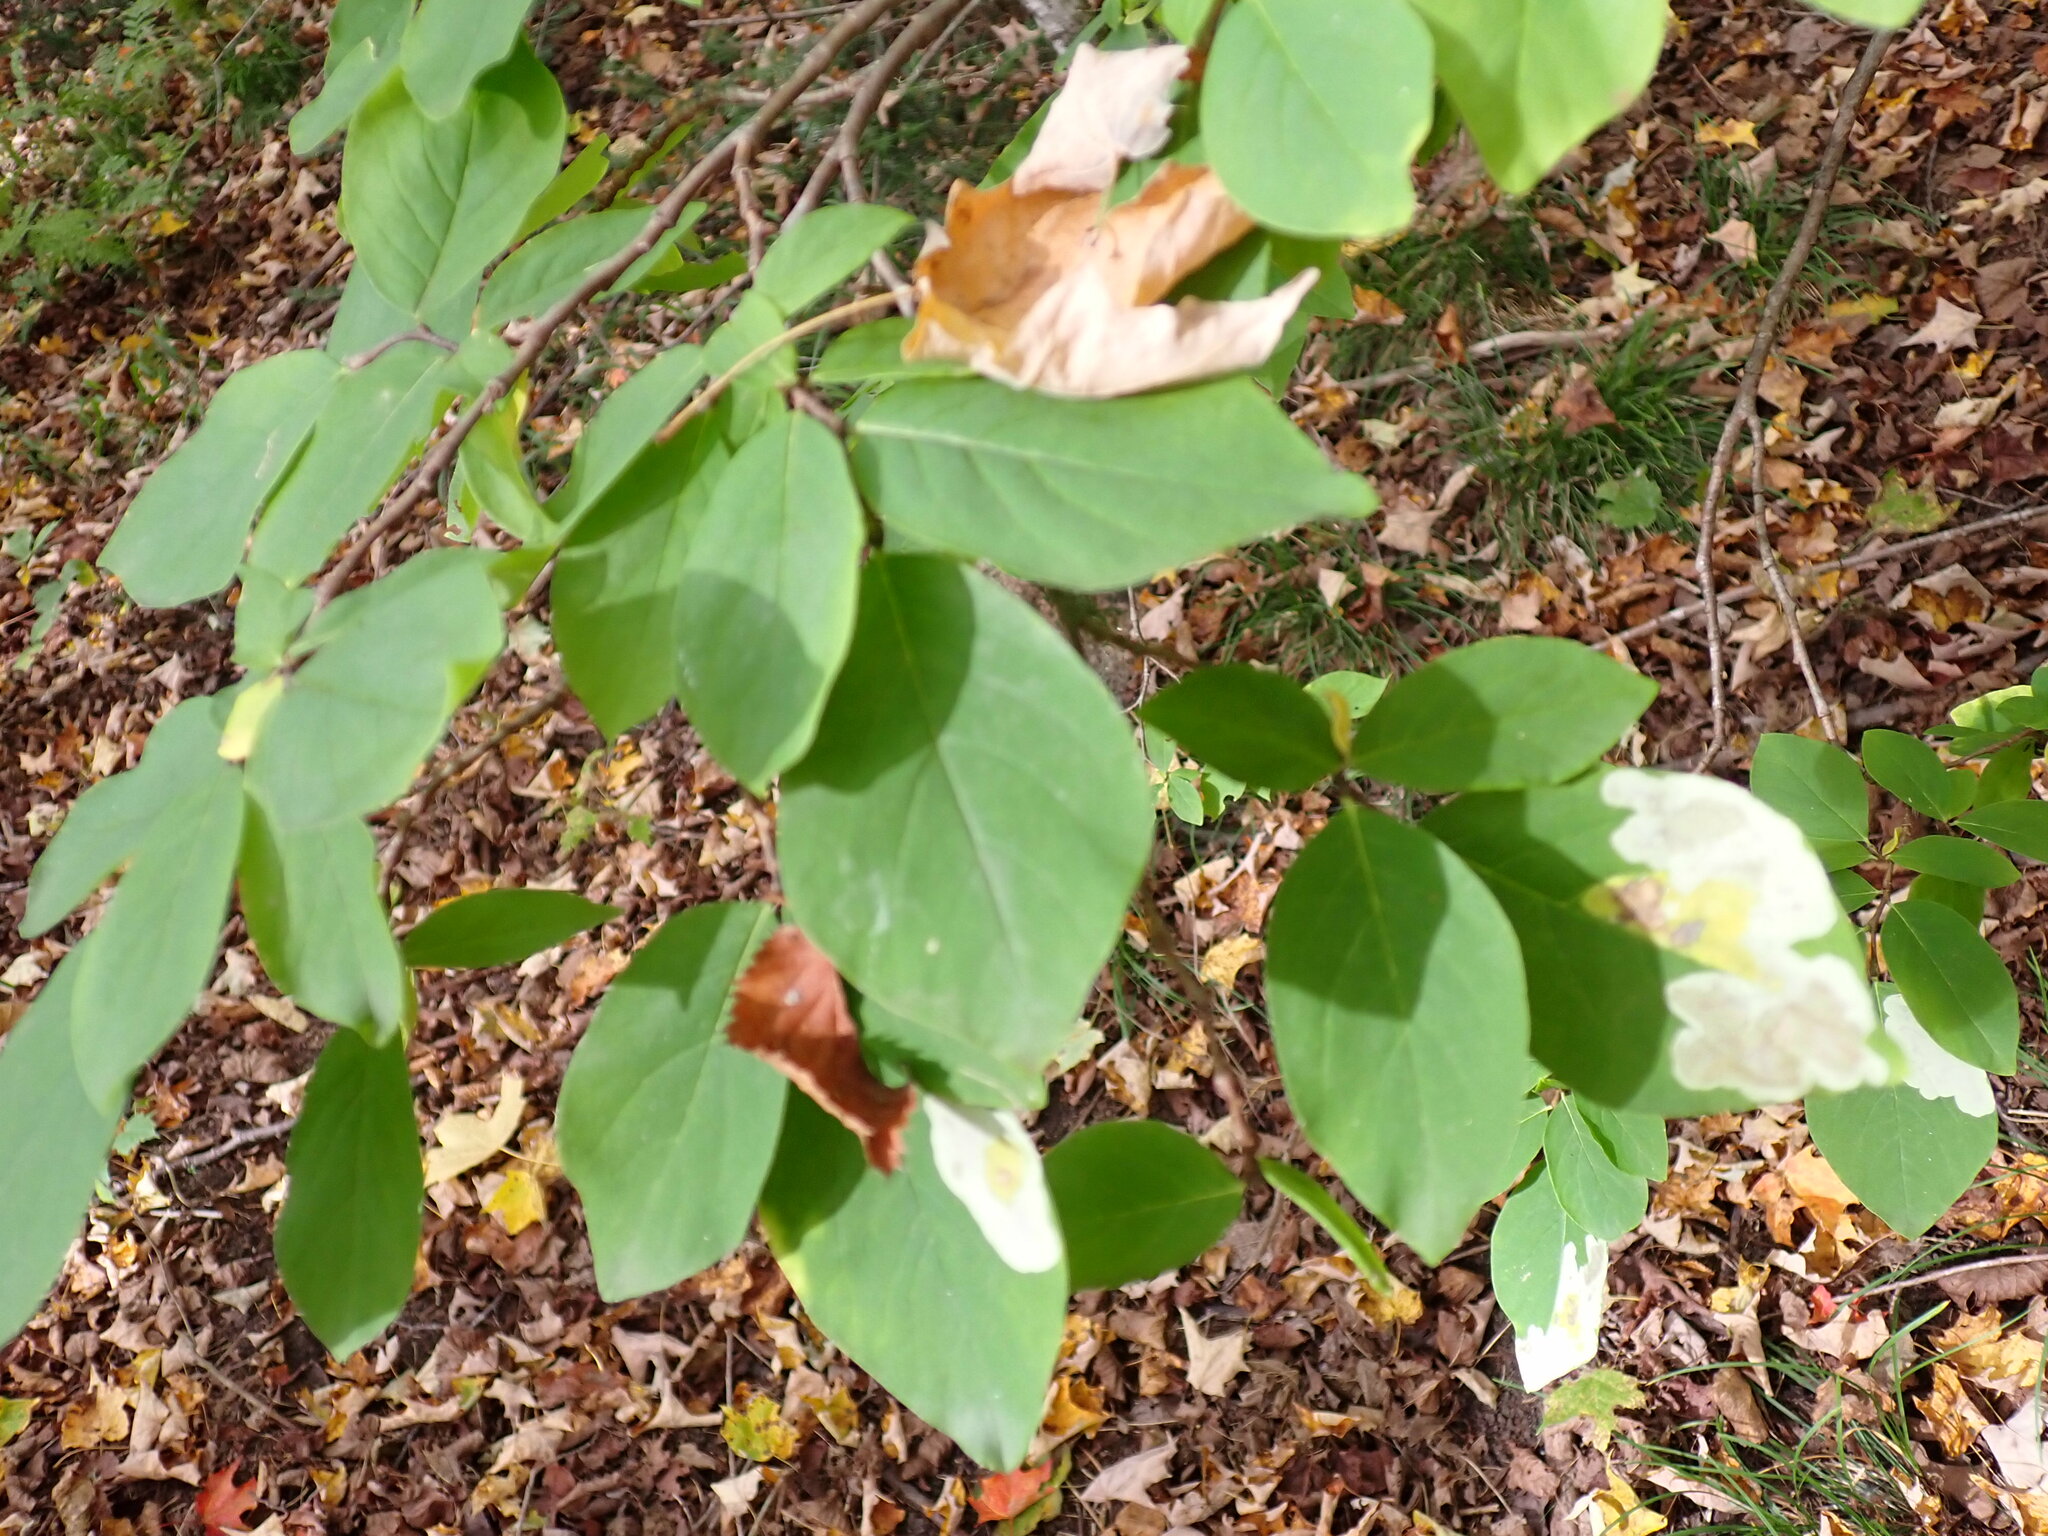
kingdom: Animalia
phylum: Arthropoda
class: Insecta
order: Lepidoptera
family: Gracillariidae
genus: Leucanthiza
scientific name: Leucanthiza dircella
